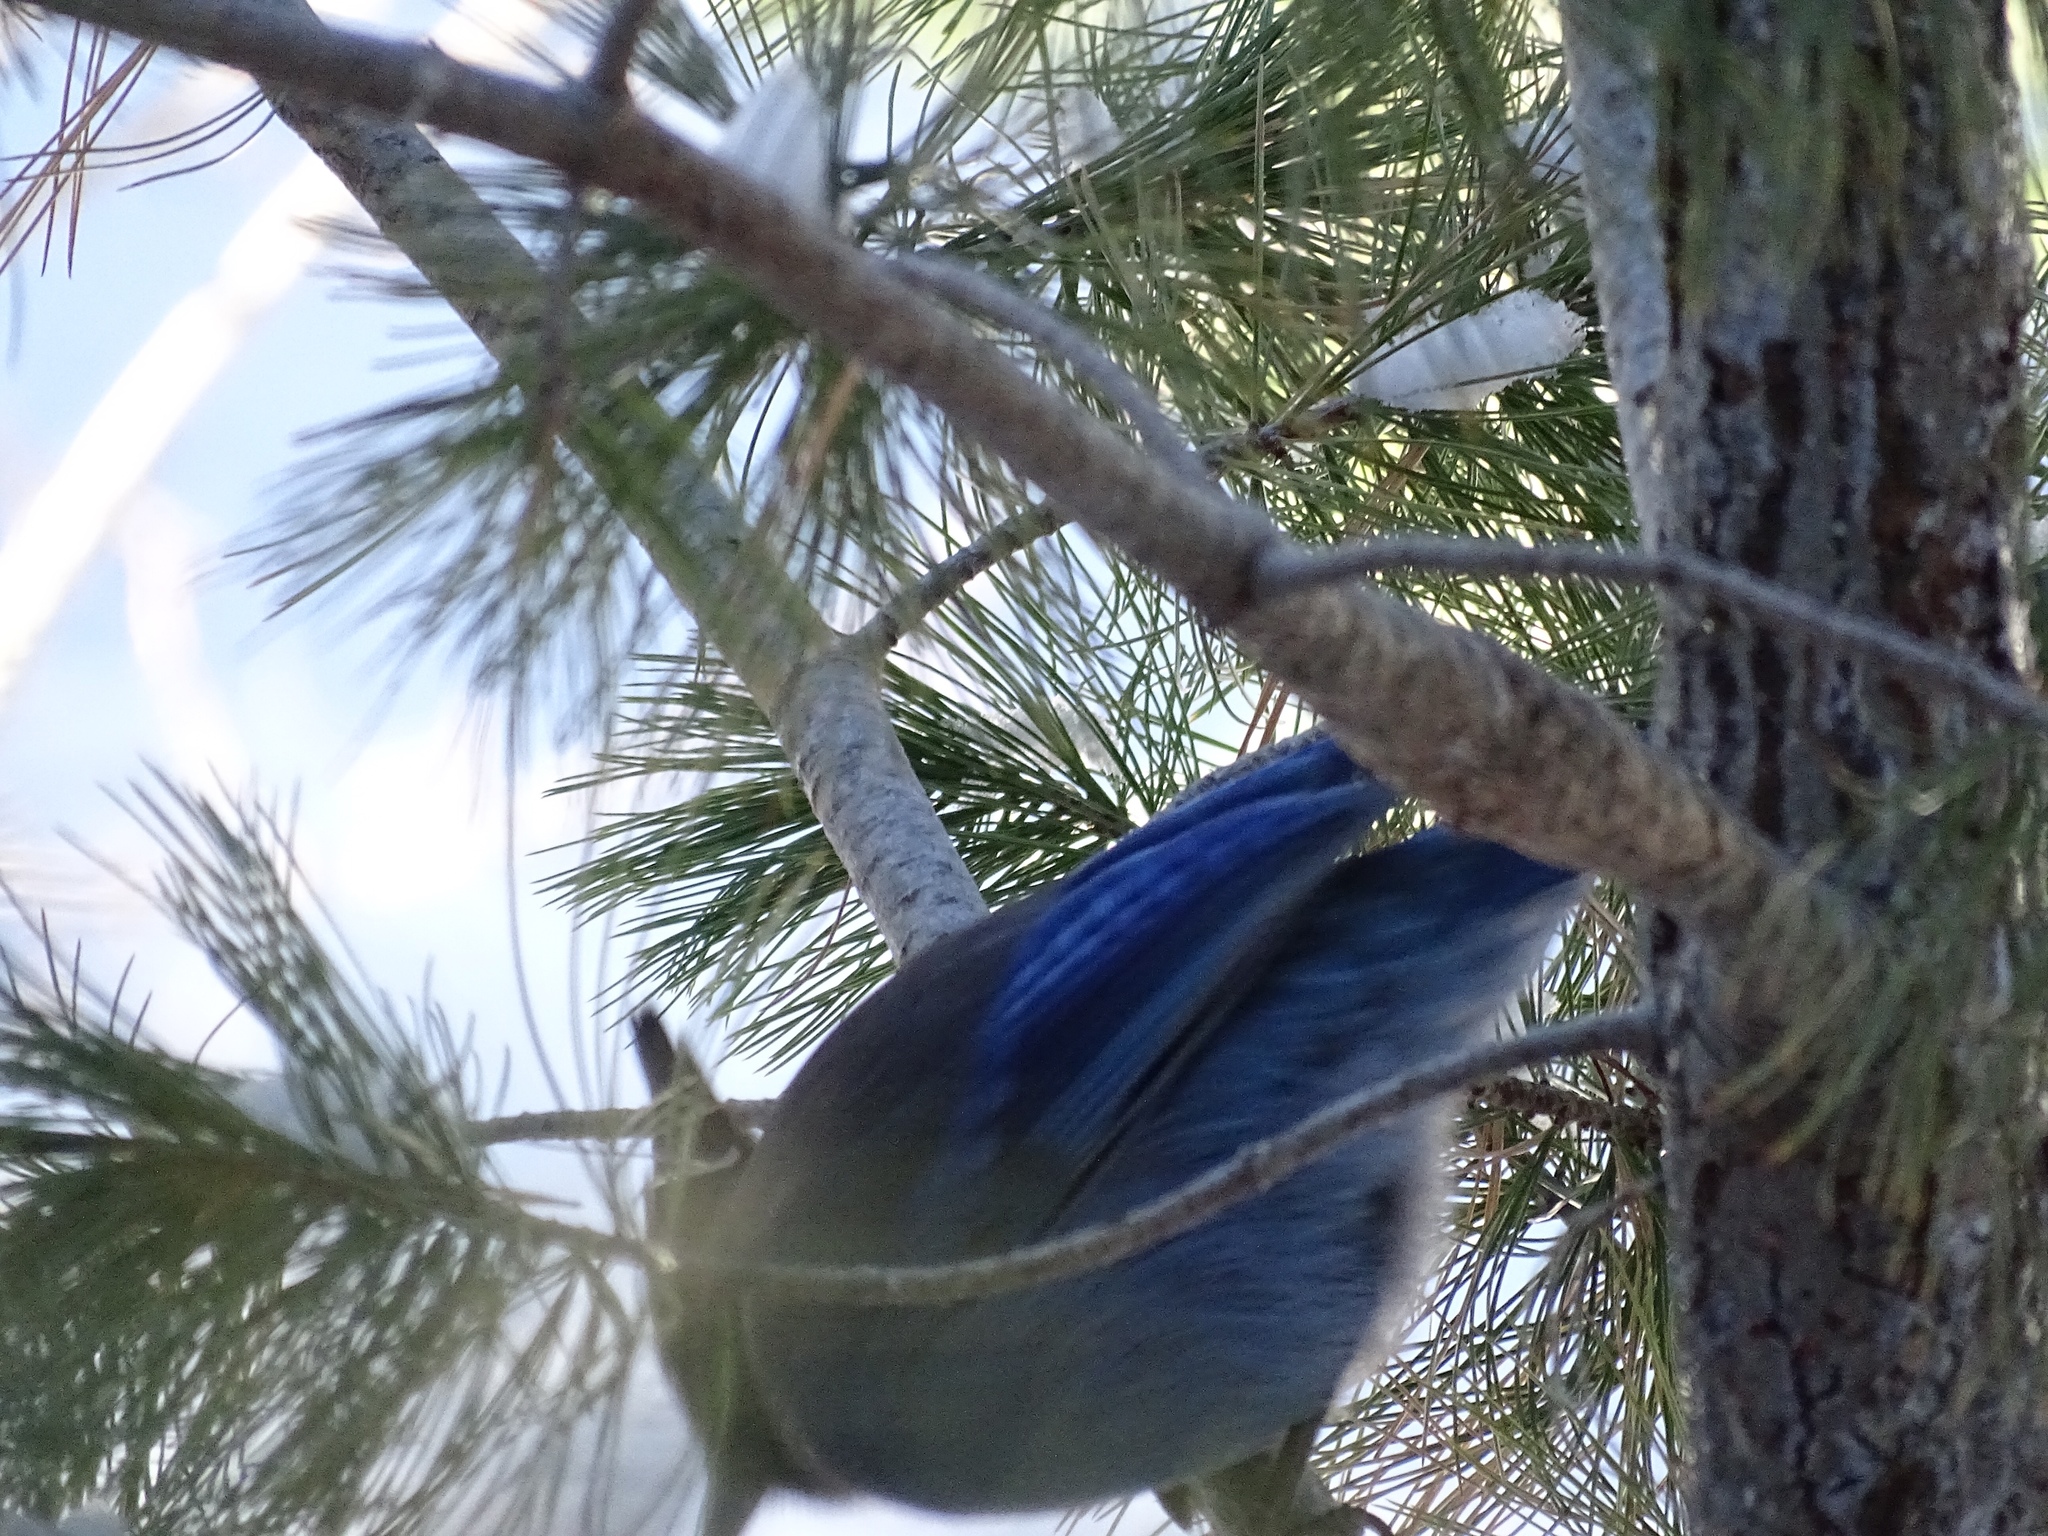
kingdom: Animalia
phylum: Chordata
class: Aves
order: Passeriformes
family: Corvidae
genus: Cyanocitta
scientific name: Cyanocitta stelleri
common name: Steller's jay
